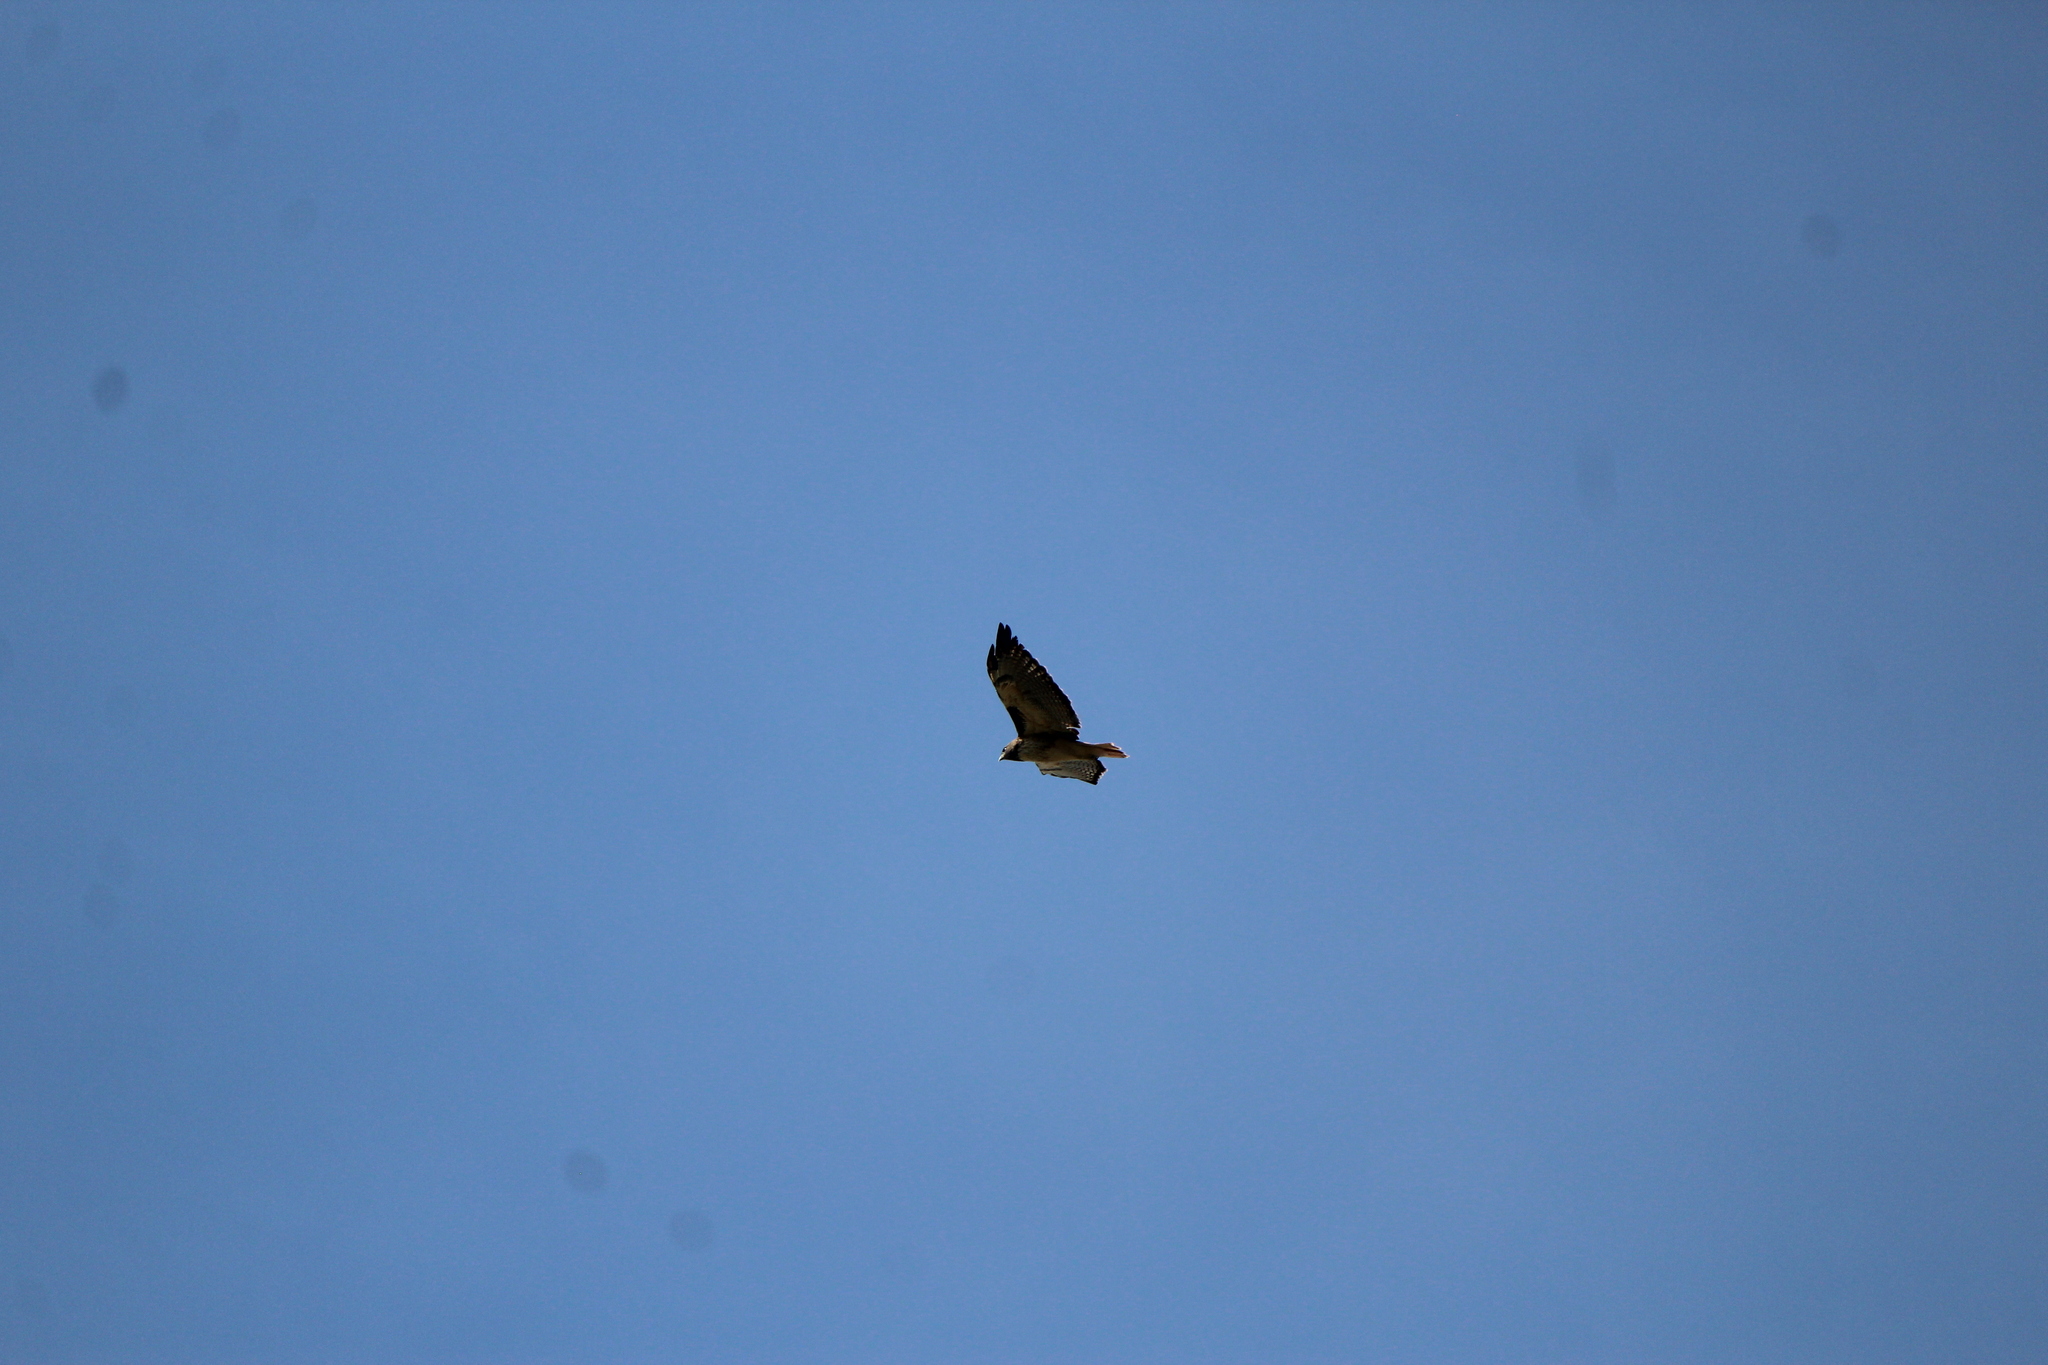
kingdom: Animalia
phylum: Chordata
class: Aves
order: Accipitriformes
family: Accipitridae
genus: Buteo
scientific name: Buteo jamaicensis
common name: Red-tailed hawk
